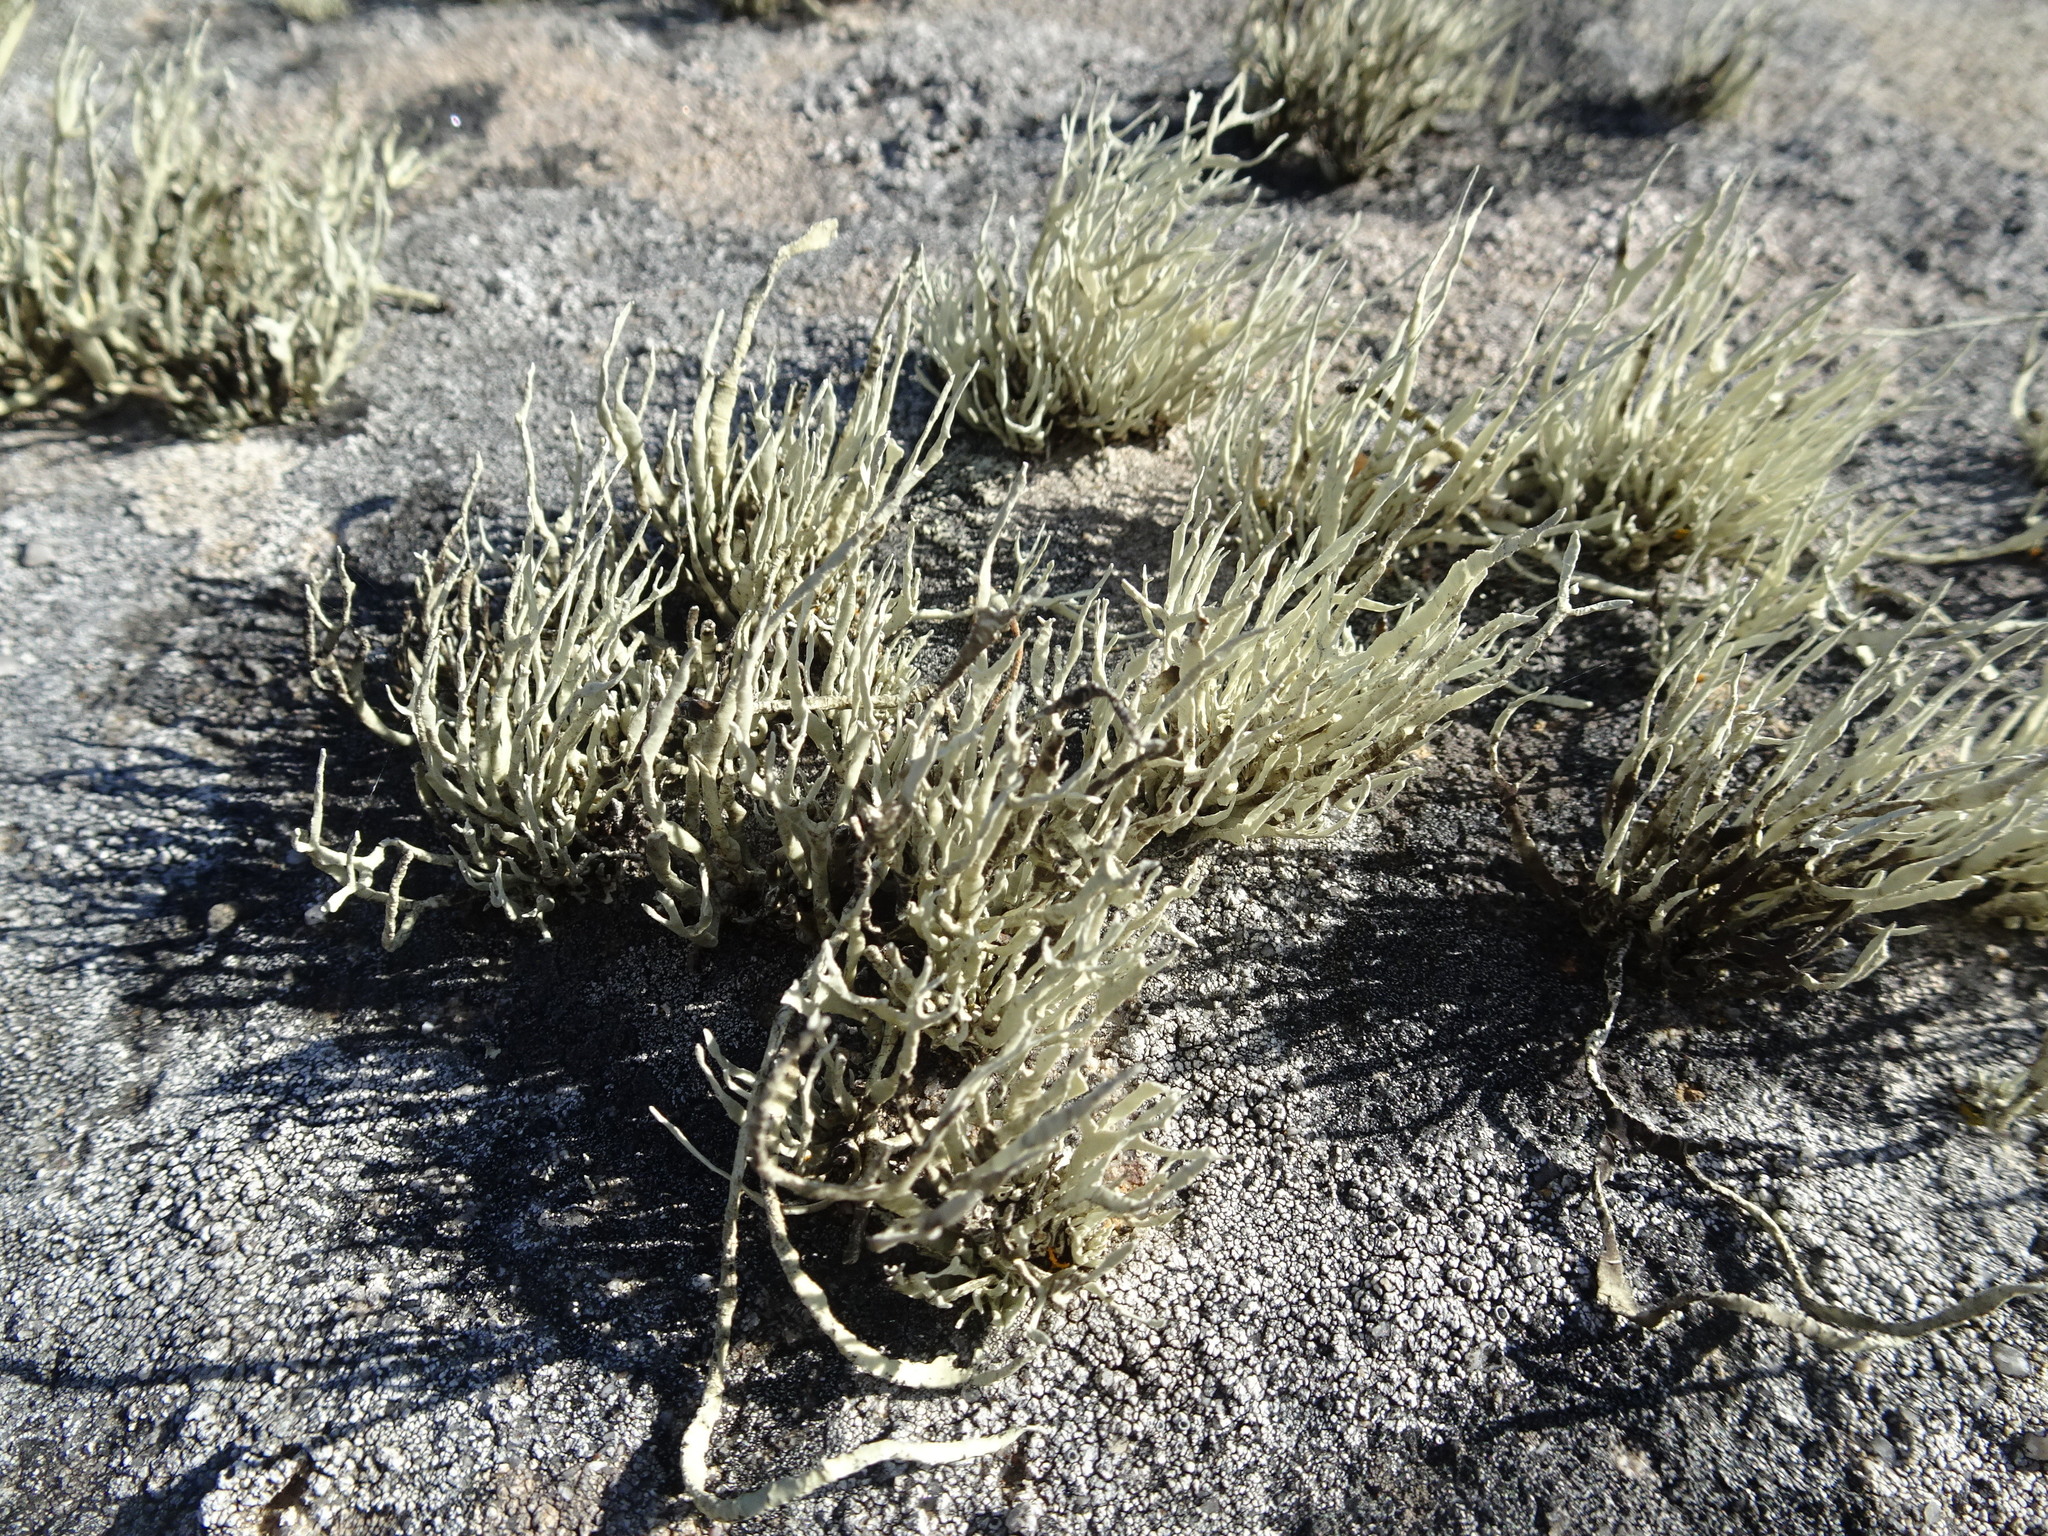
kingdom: Fungi
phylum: Ascomycota
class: Lecanoromycetes
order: Lecanorales
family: Ramalinaceae
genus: Niebla
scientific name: Niebla homalea
